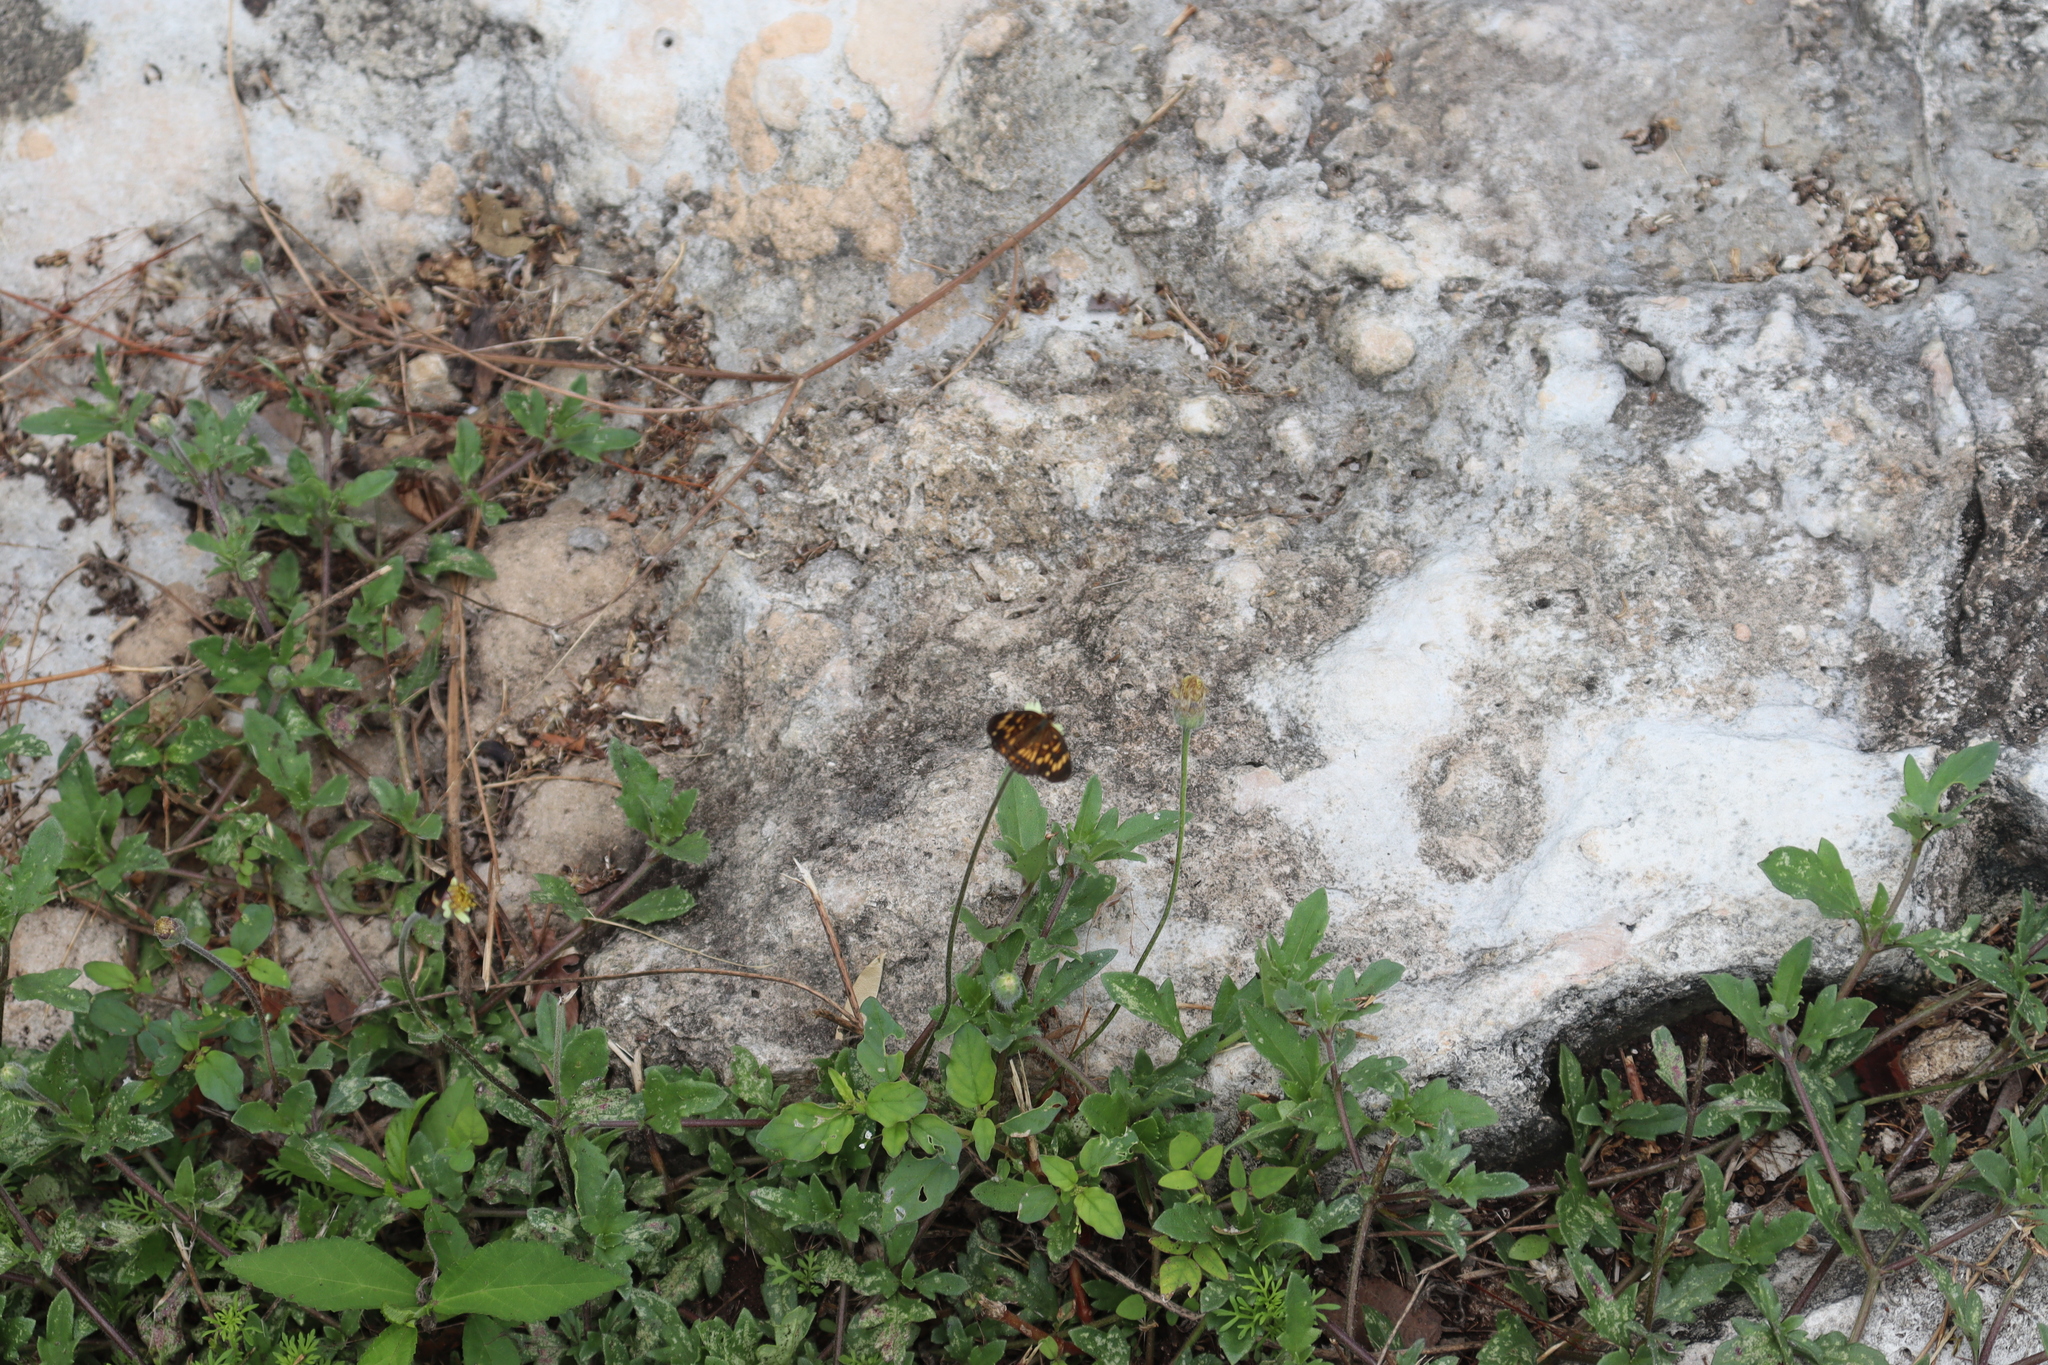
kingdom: Animalia
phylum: Arthropoda
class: Insecta
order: Lepidoptera
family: Nymphalidae
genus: Thessalia
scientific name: Thessalia theona
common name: Nymphalid moth
